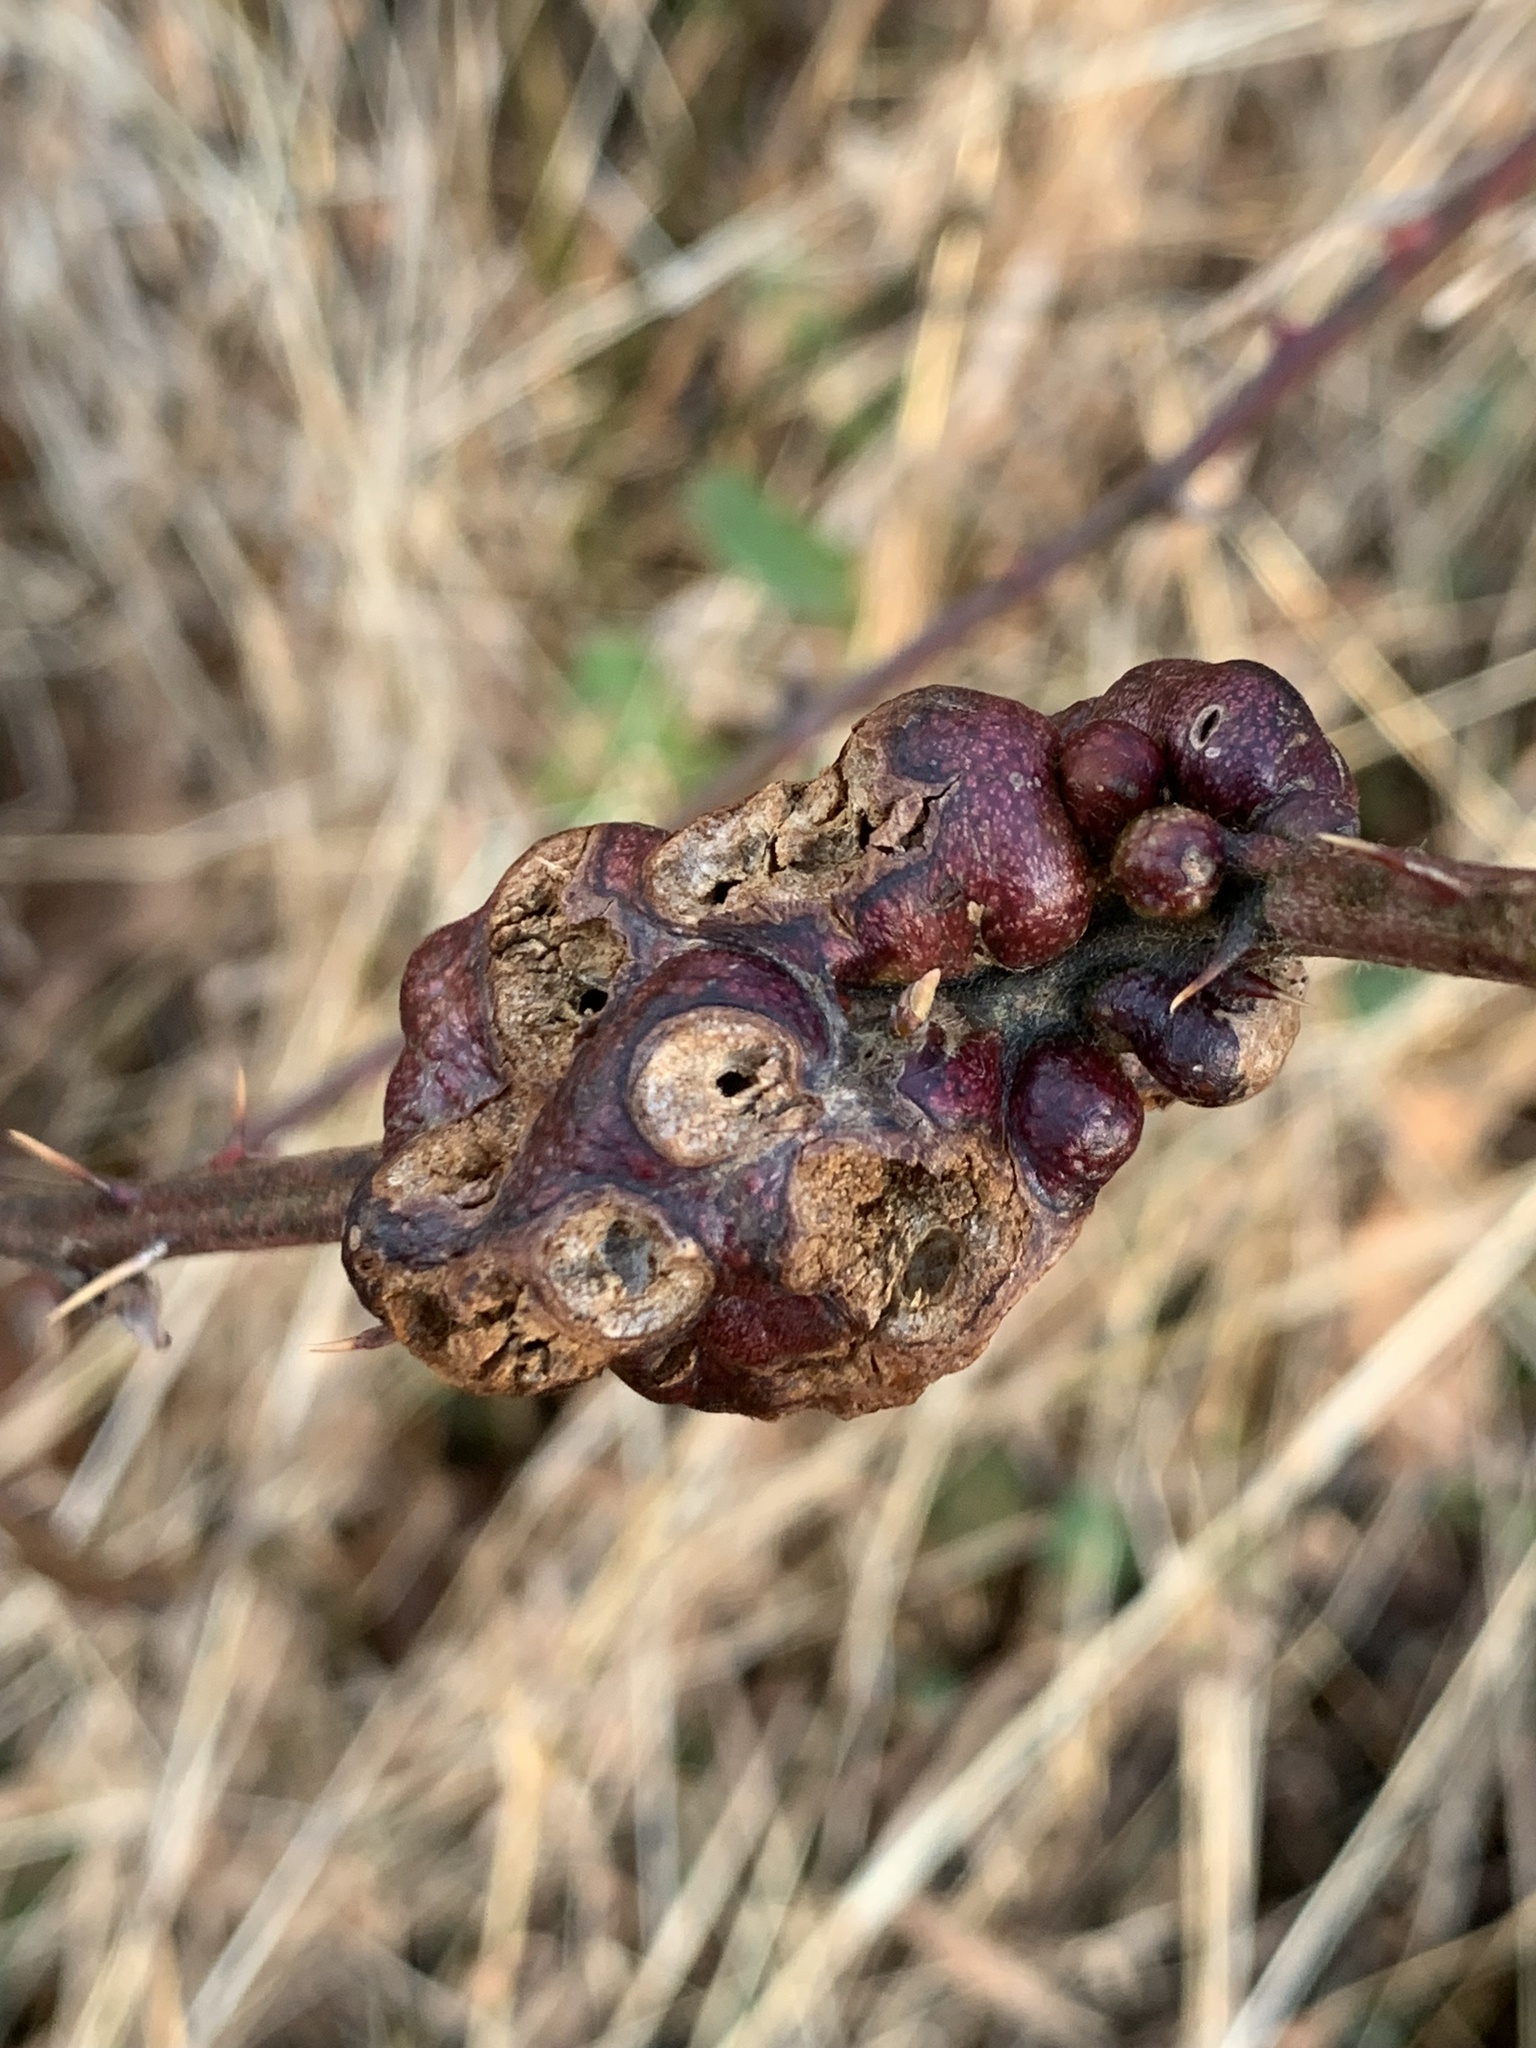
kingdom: Animalia
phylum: Arthropoda
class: Insecta
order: Hymenoptera
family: Cynipidae
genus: Diastrophus
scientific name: Diastrophus
